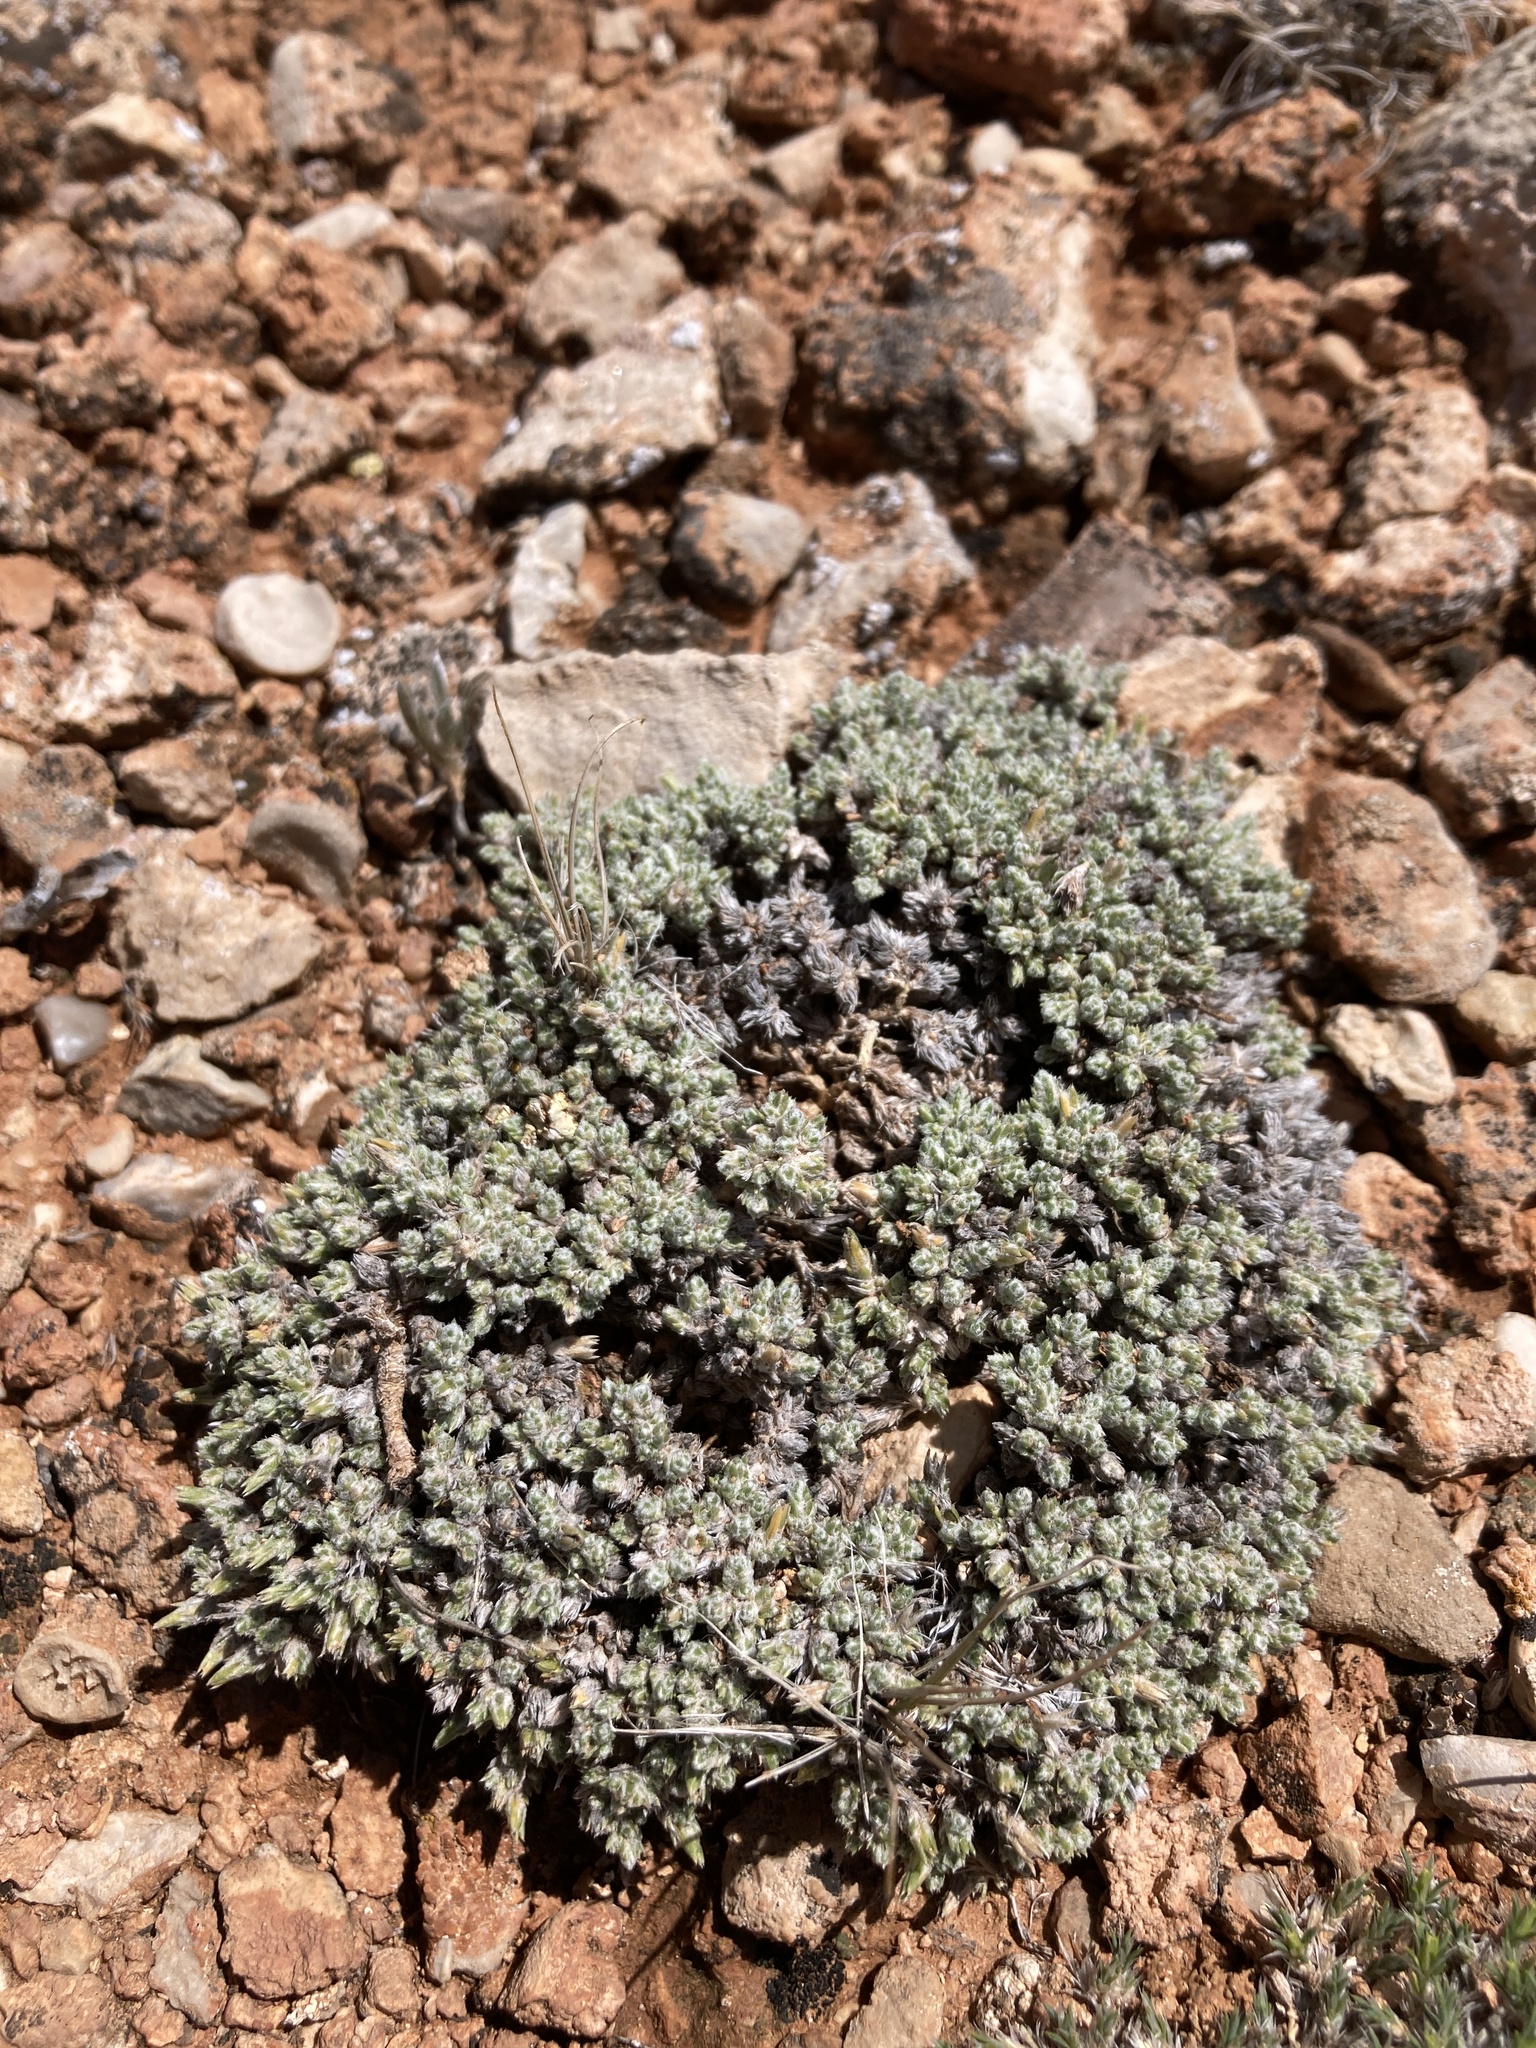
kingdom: Plantae
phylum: Tracheophyta
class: Magnoliopsida
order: Ericales
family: Polemoniaceae
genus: Phlox
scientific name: Phlox hoodii
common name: Moss phlox
